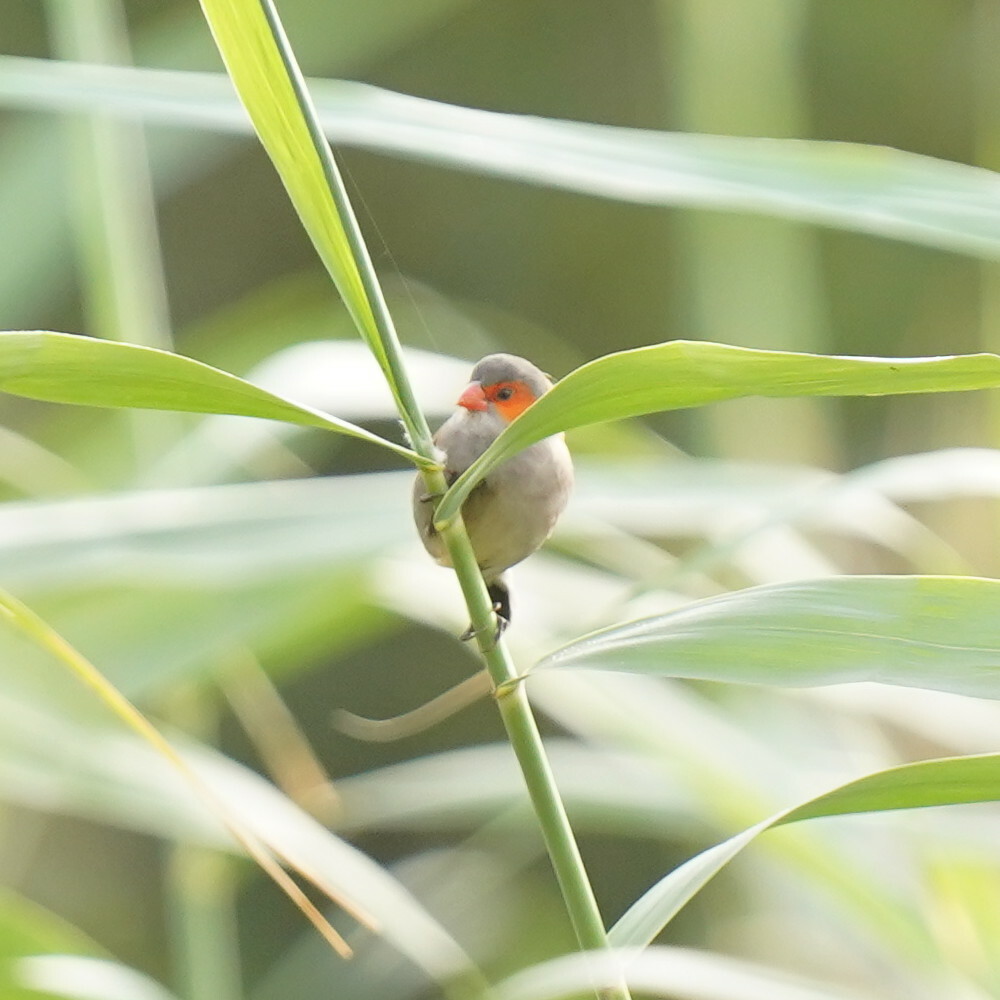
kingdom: Animalia
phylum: Chordata
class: Aves
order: Passeriformes
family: Estrildidae
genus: Estrilda
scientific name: Estrilda melpoda
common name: Orange-cheeked waxbill
